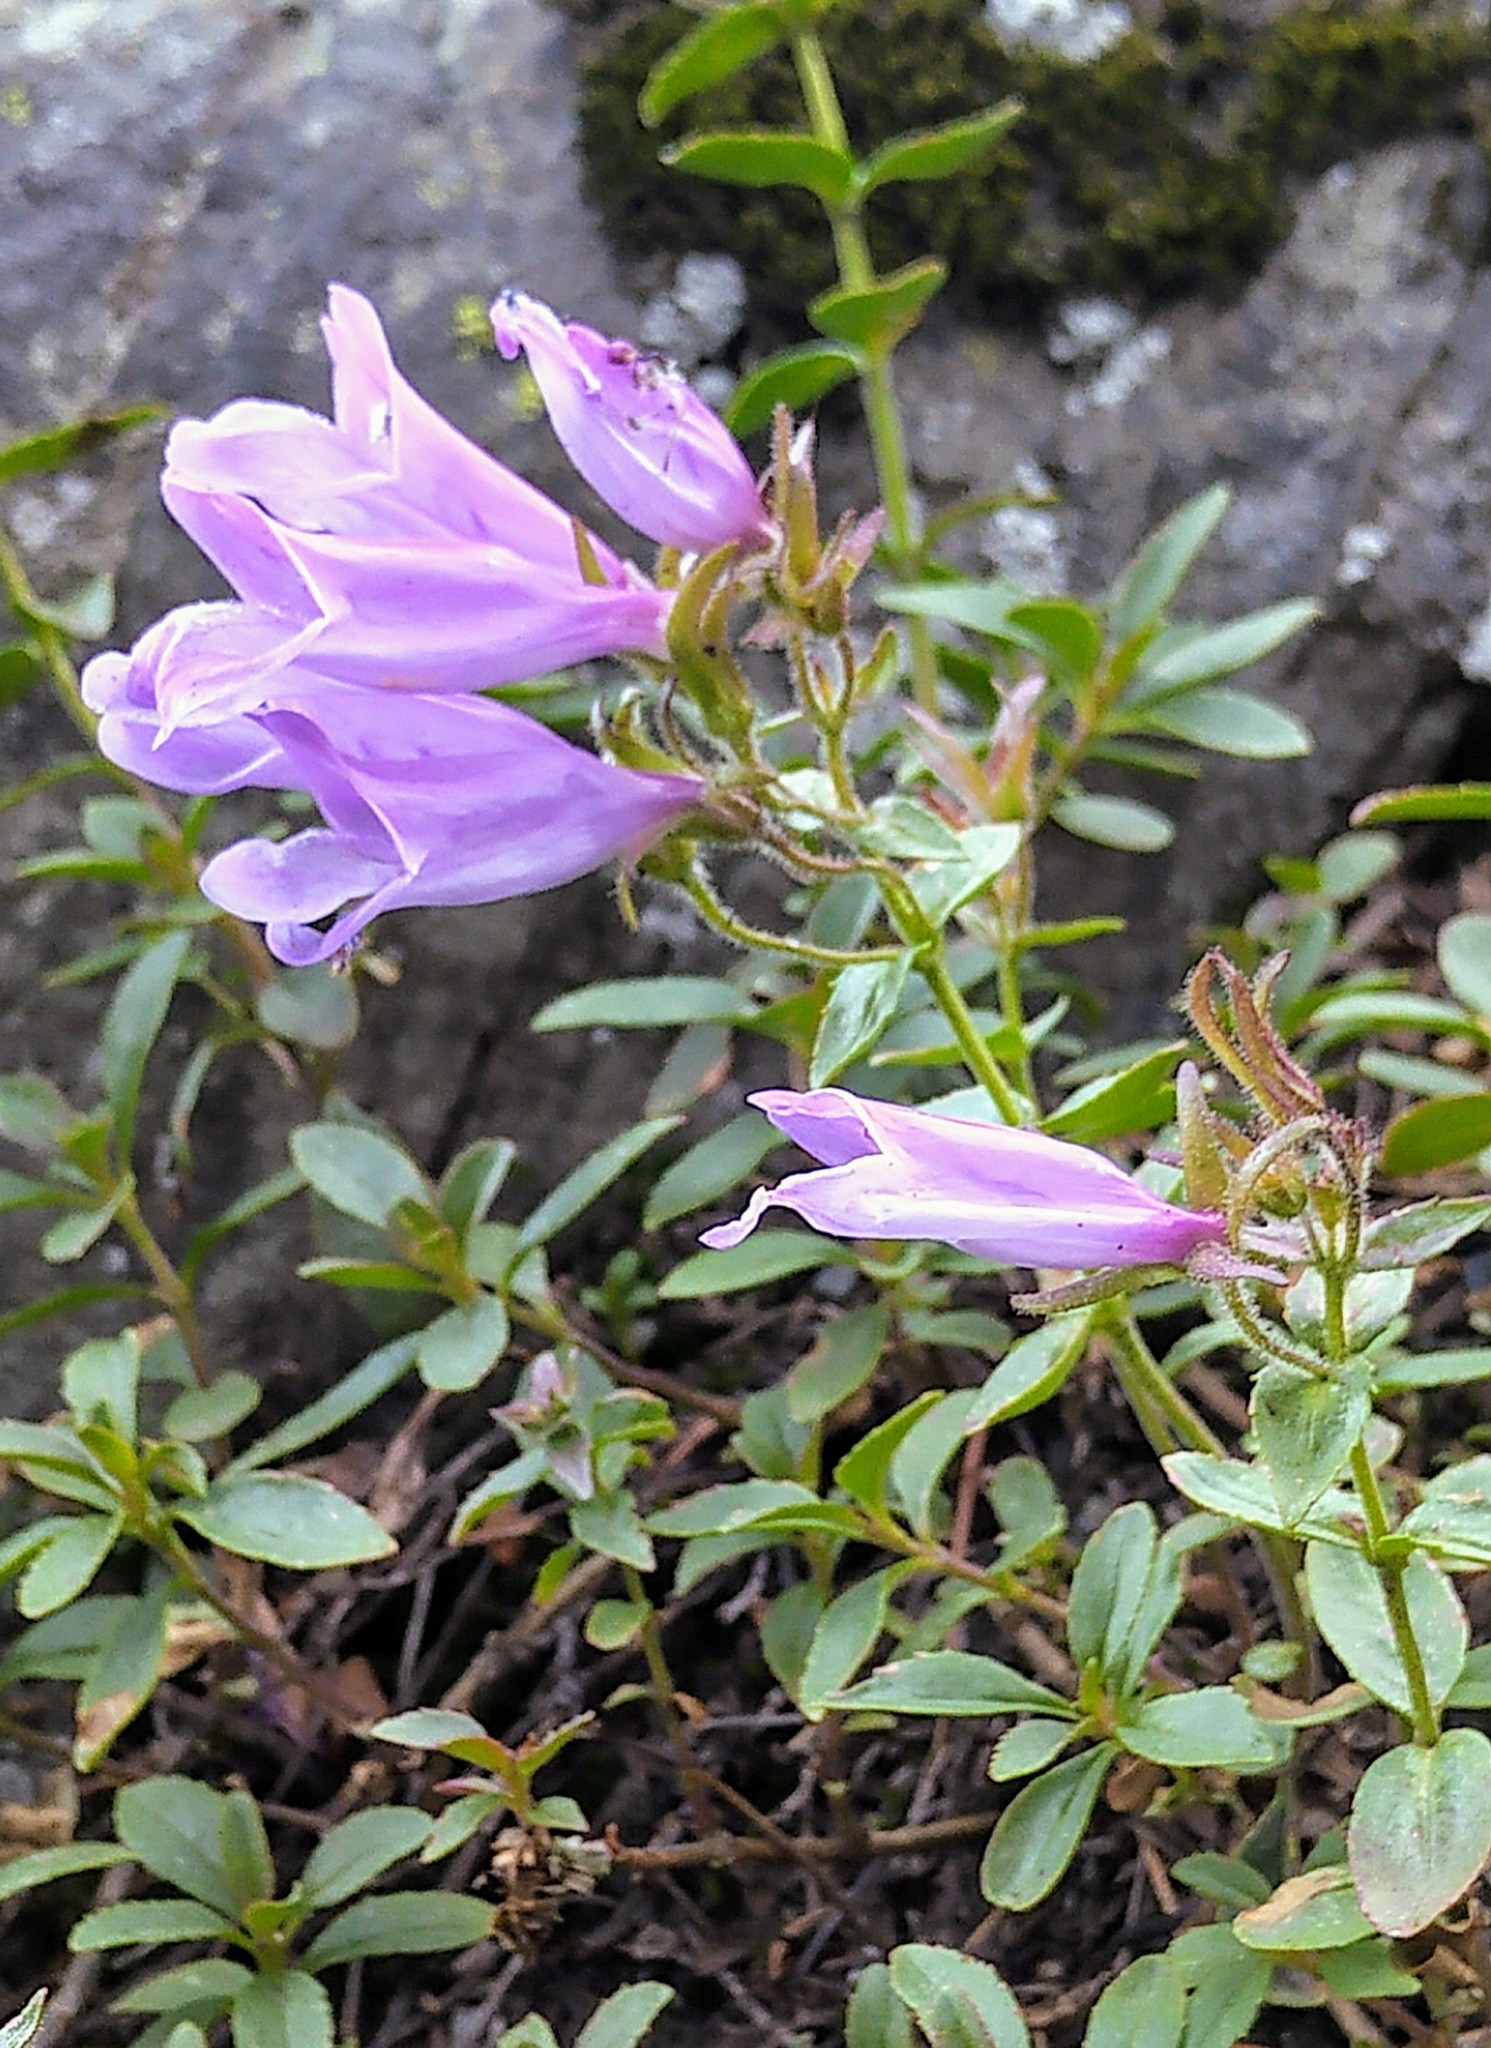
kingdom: Plantae
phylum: Tracheophyta
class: Magnoliopsida
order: Lamiales
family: Plantaginaceae
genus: Penstemon
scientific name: Penstemon ellipticus
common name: Alpine beardtongue
